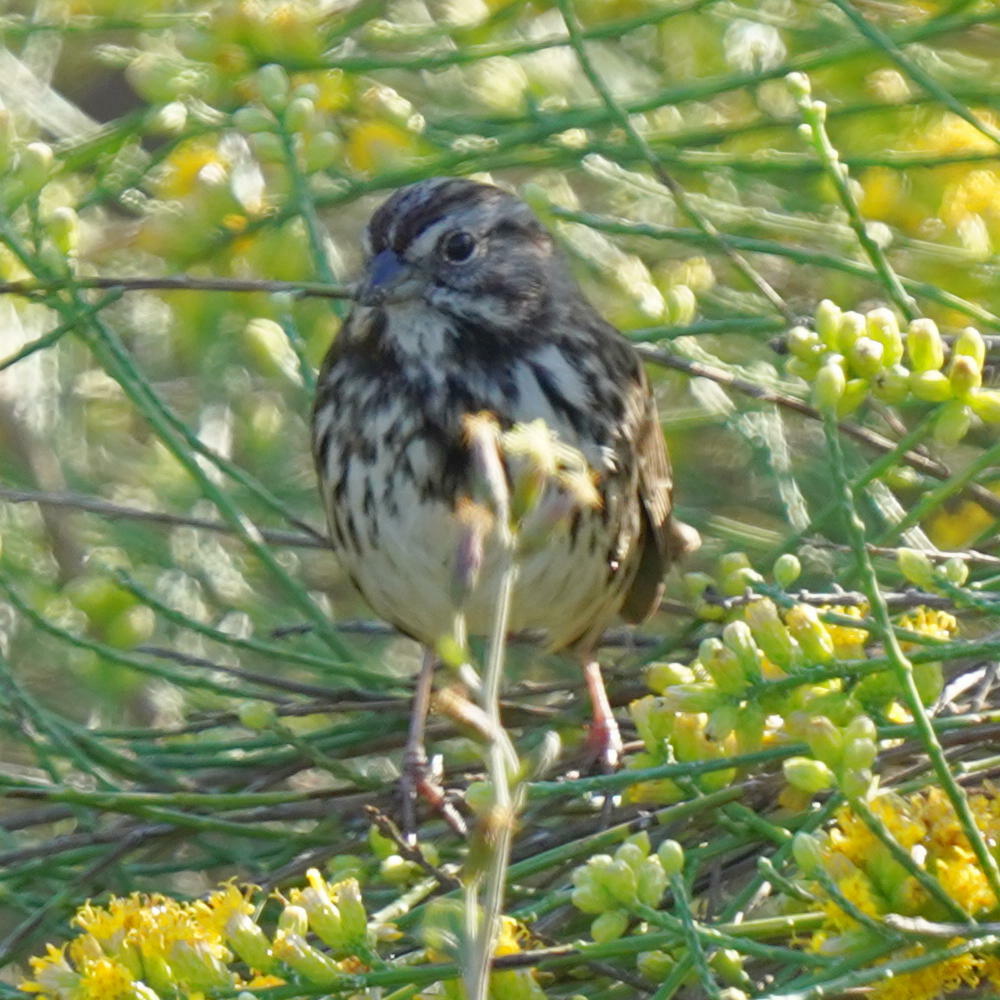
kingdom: Animalia
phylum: Chordata
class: Aves
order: Passeriformes
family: Passerellidae
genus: Melospiza
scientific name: Melospiza melodia
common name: Song sparrow
